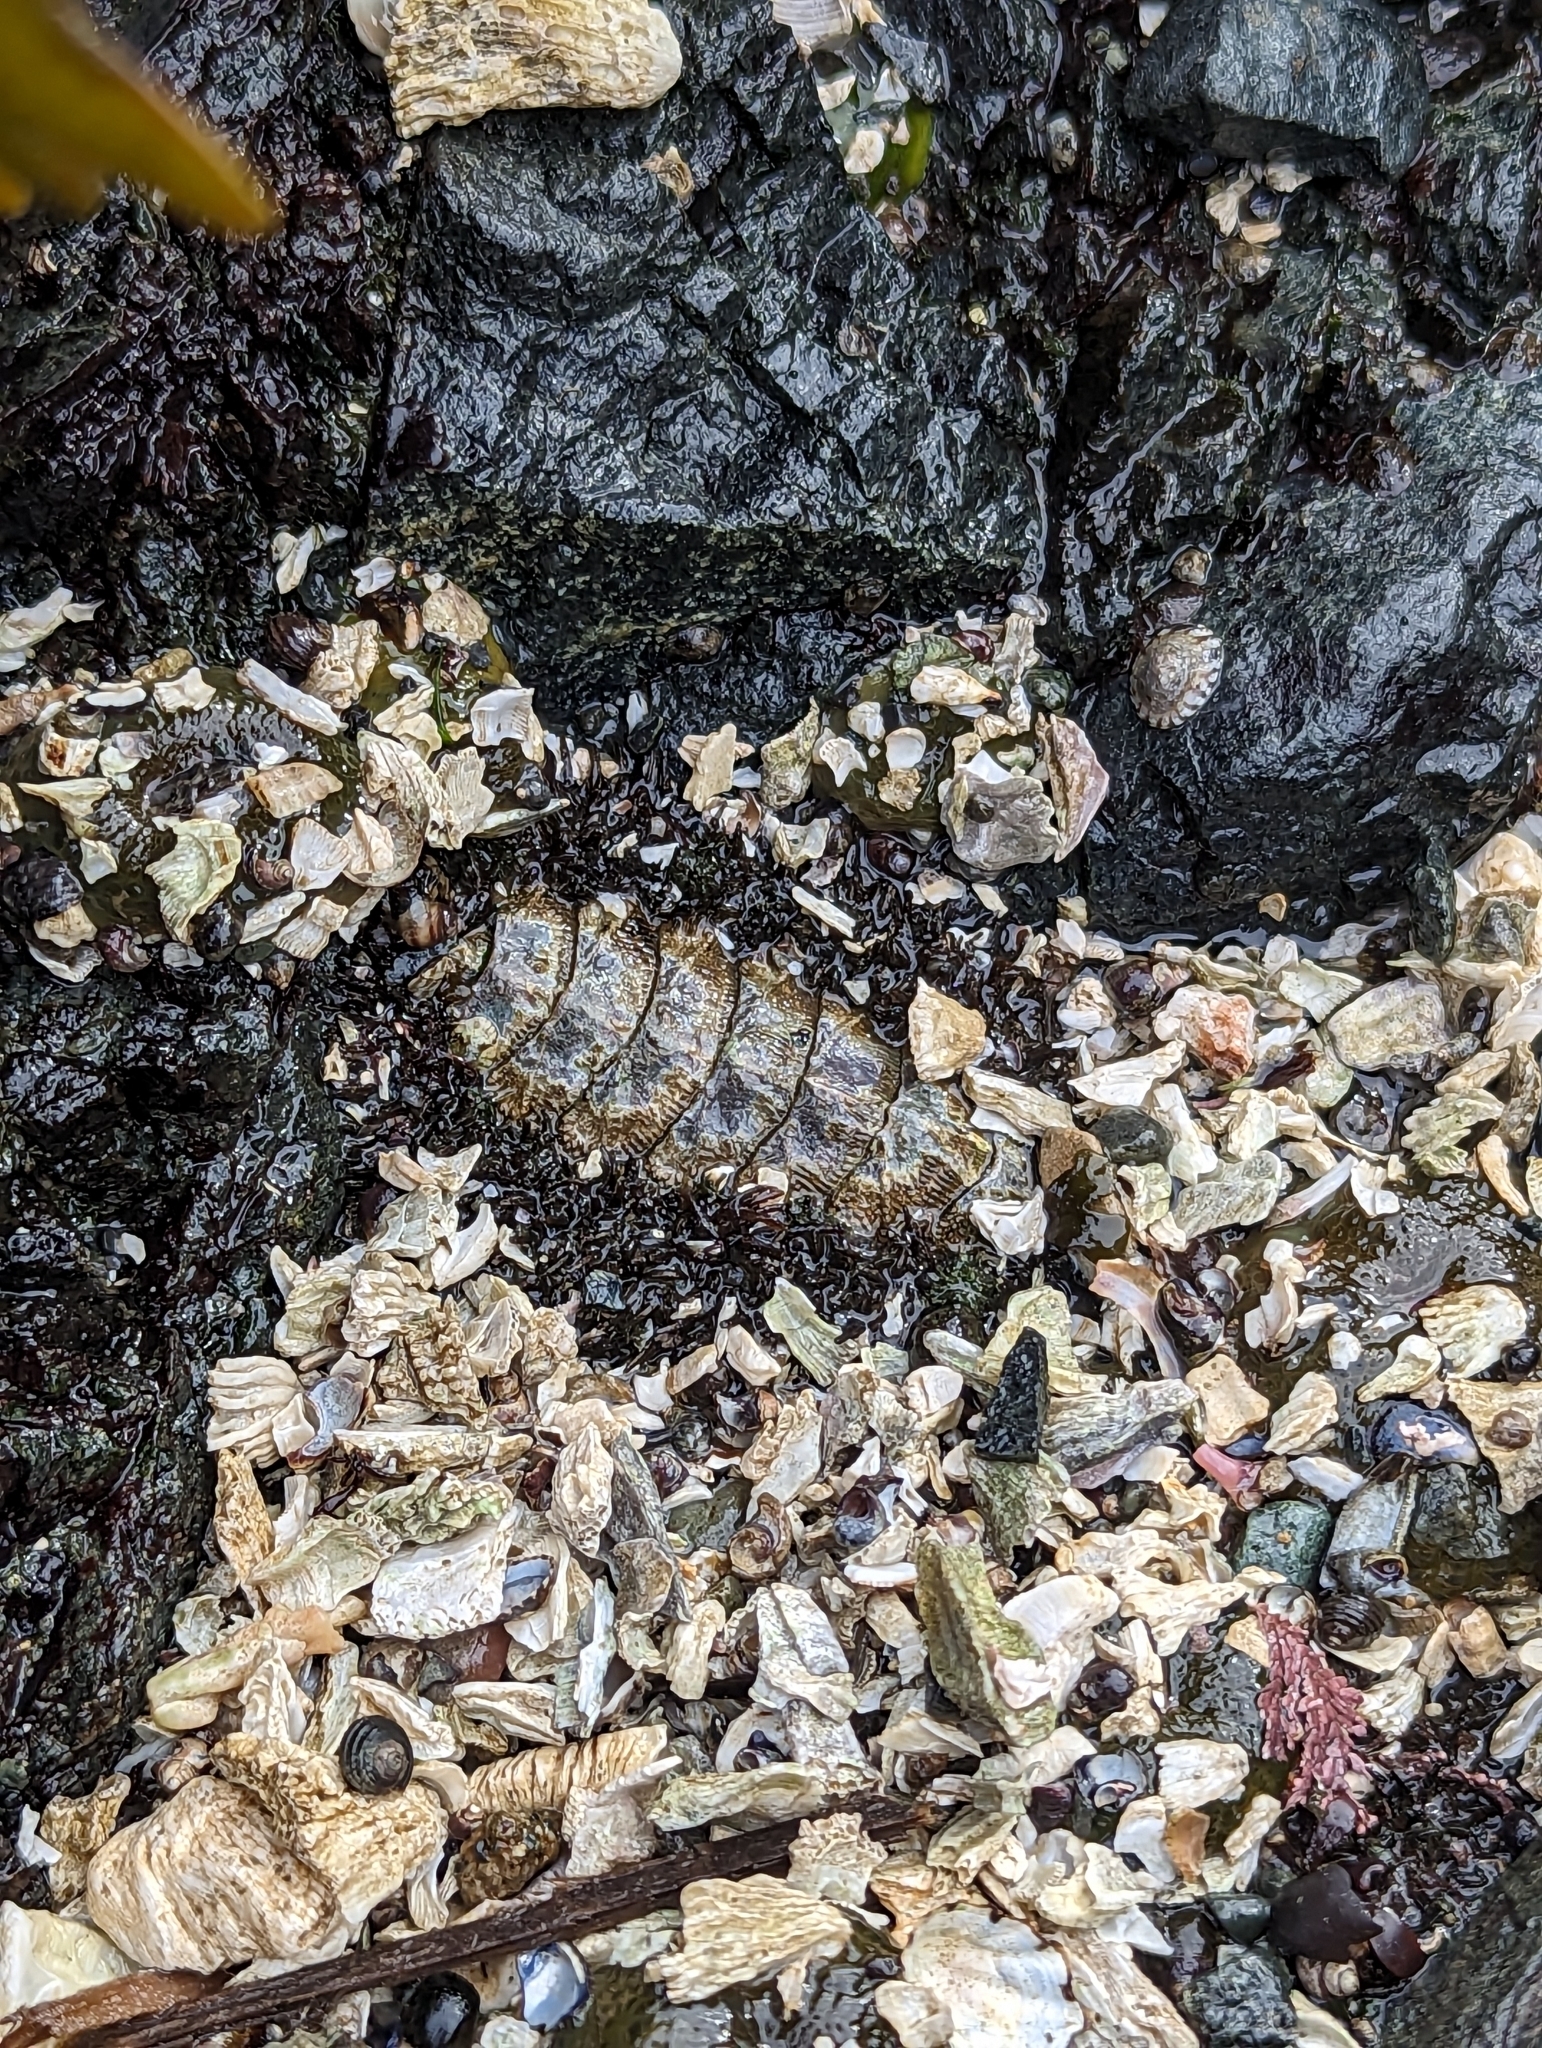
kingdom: Animalia
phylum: Mollusca
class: Polyplacophora
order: Chitonida
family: Mopaliidae
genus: Mopalia
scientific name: Mopalia muscosa
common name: Mossy chiton
